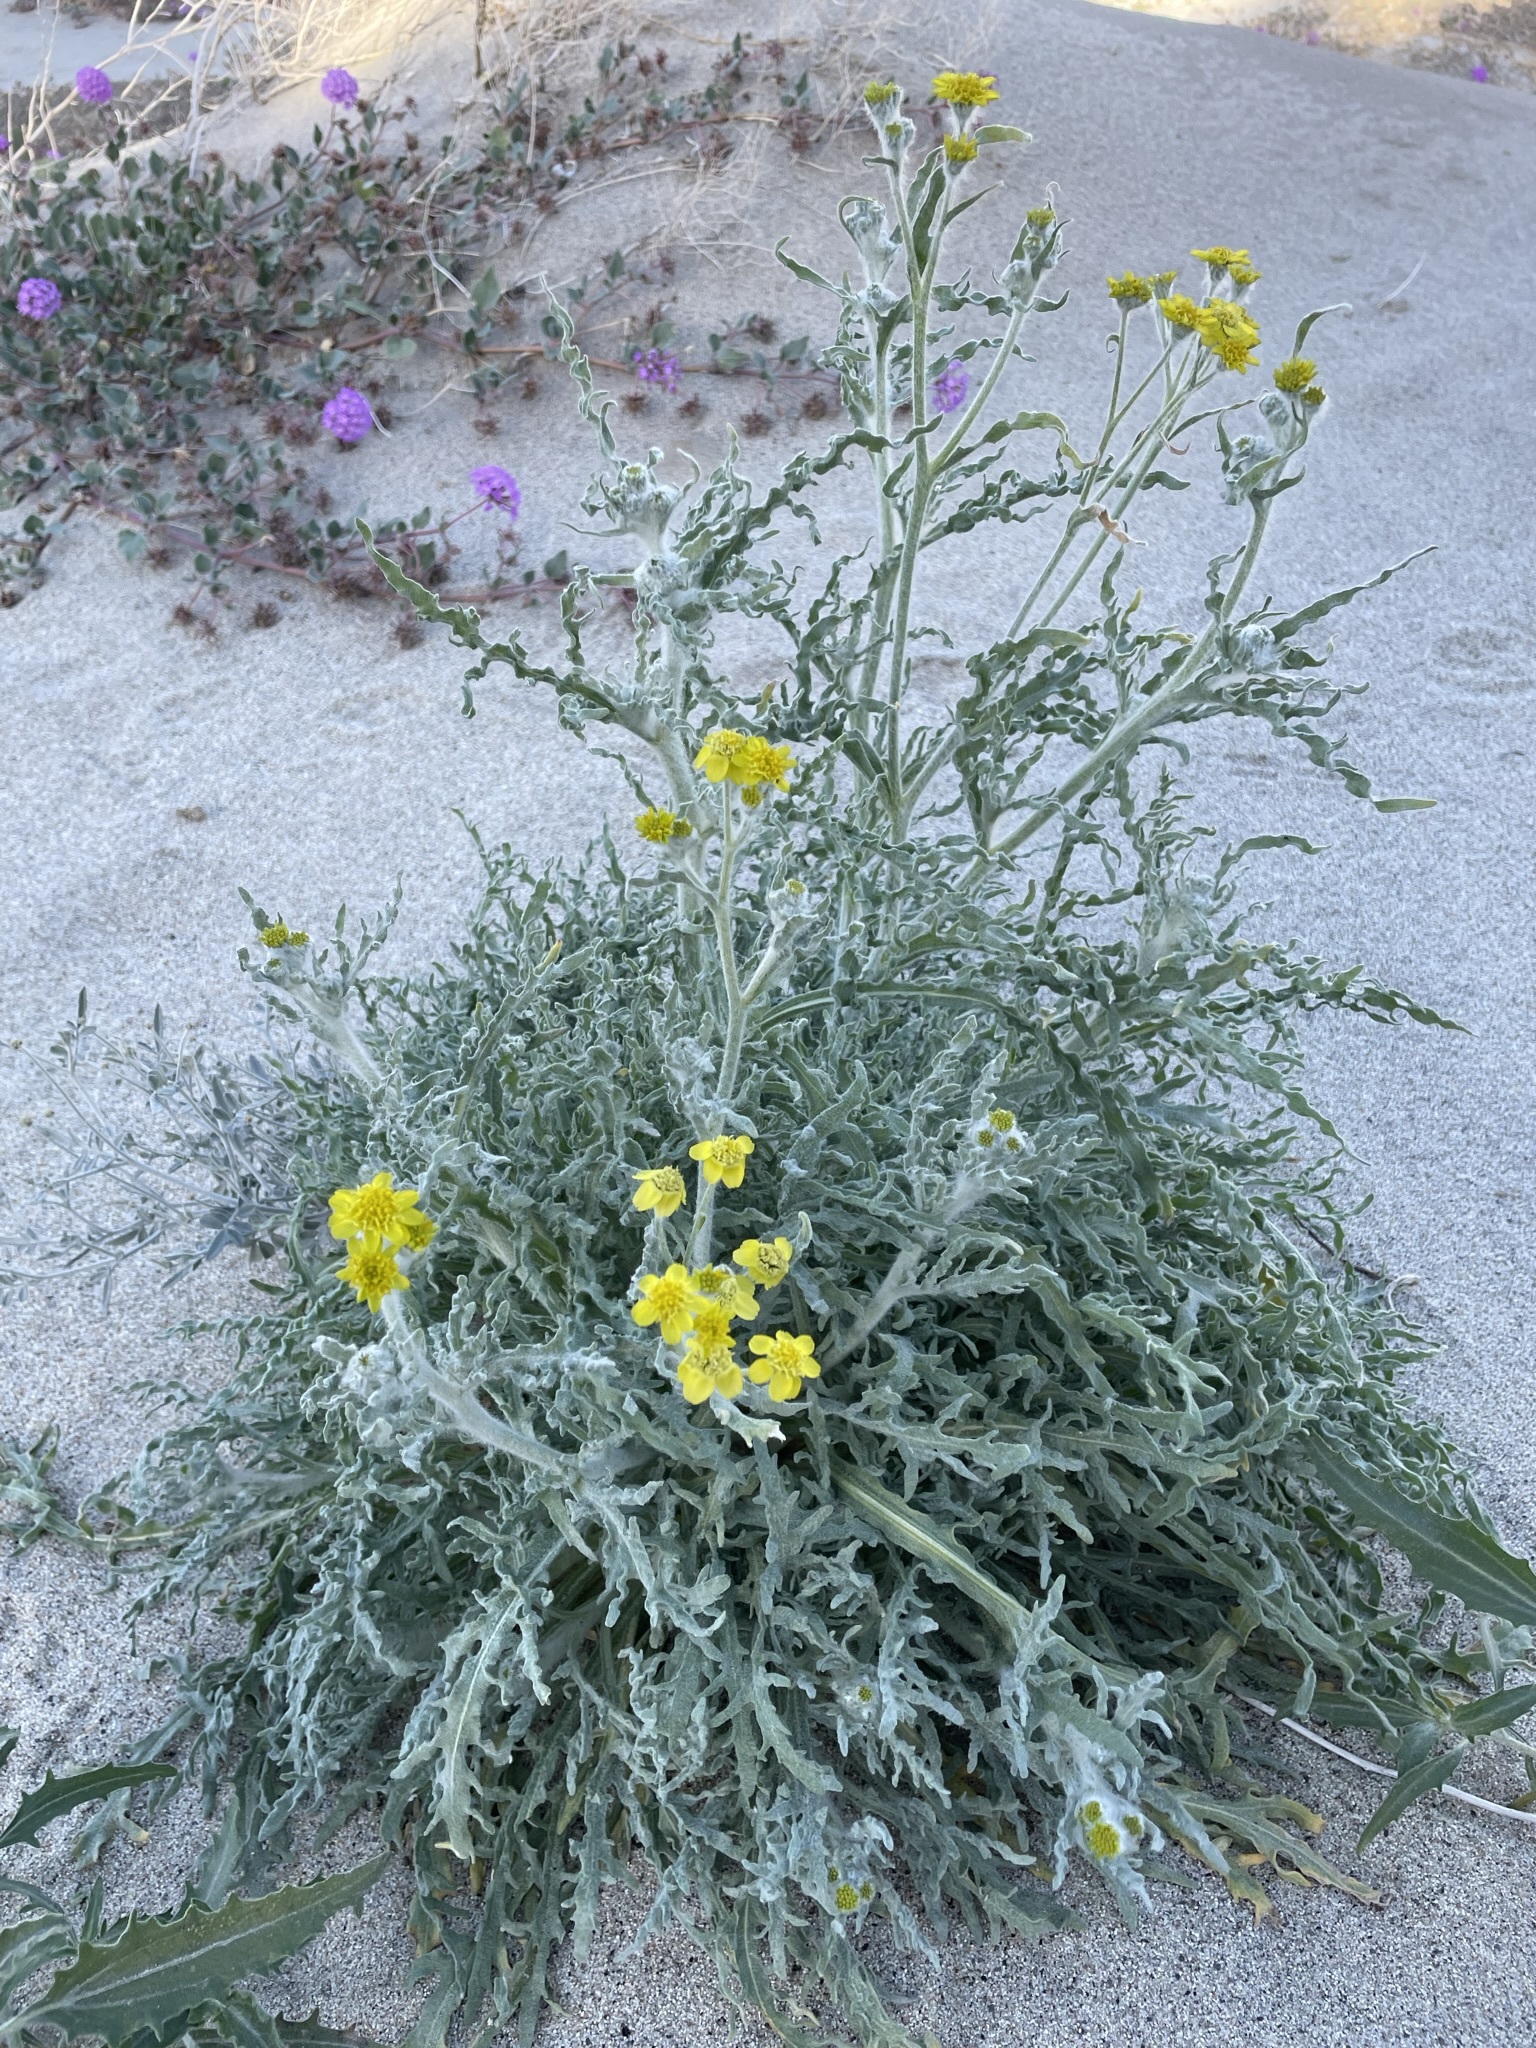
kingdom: Plantae
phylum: Tracheophyta
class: Magnoliopsida
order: Asterales
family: Asteraceae
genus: Baileya
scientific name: Baileya pauciradiata
